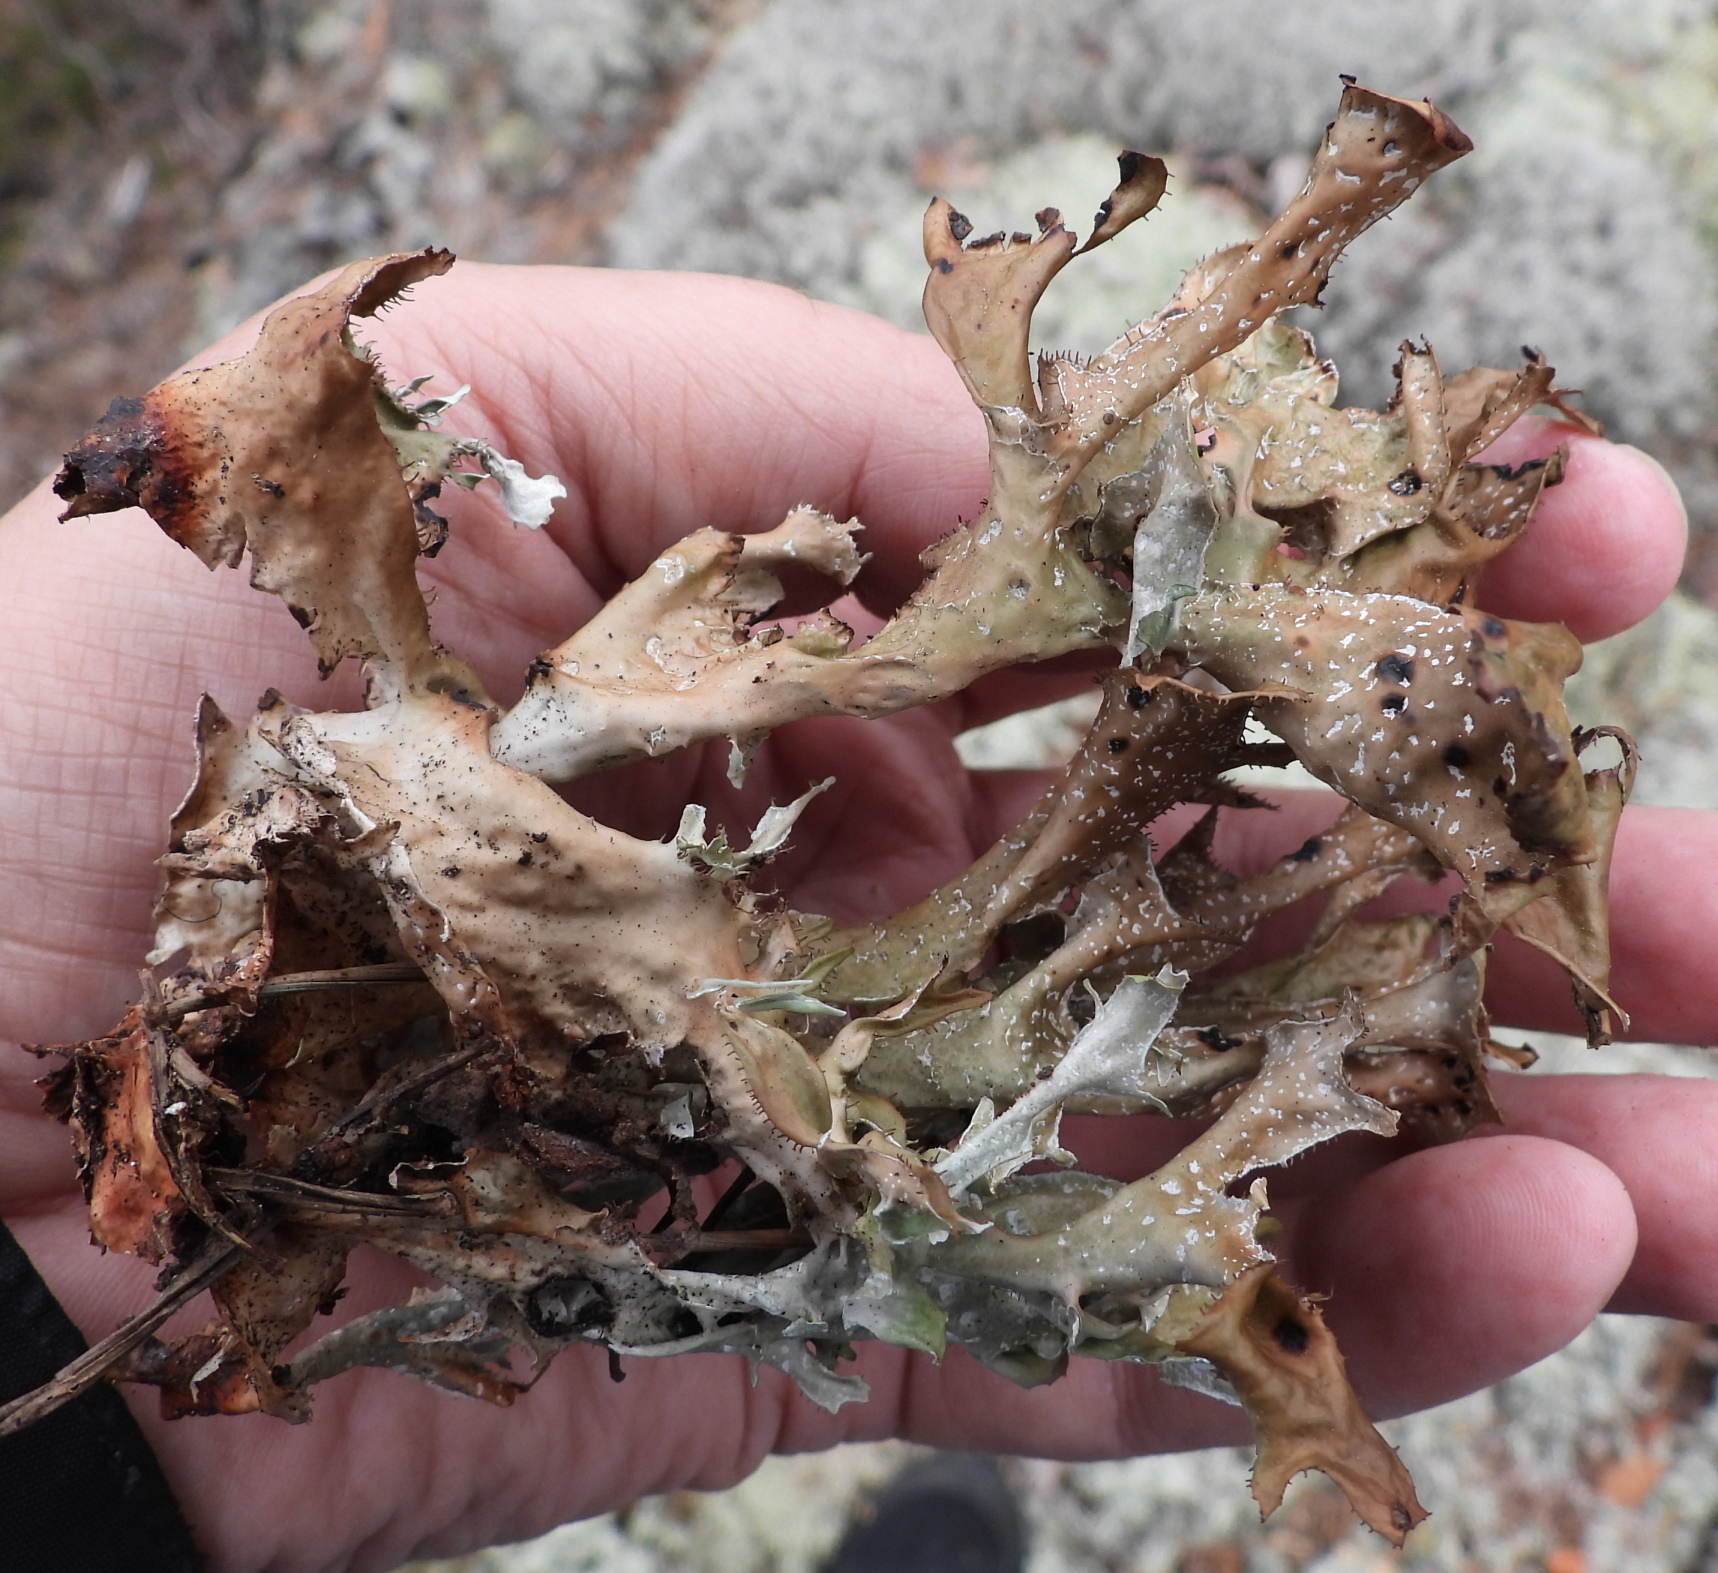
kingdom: Fungi
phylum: Ascomycota
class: Lecanoromycetes
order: Lecanorales
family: Parmeliaceae
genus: Cetraria
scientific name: Cetraria islandica
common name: Iceland lichen
